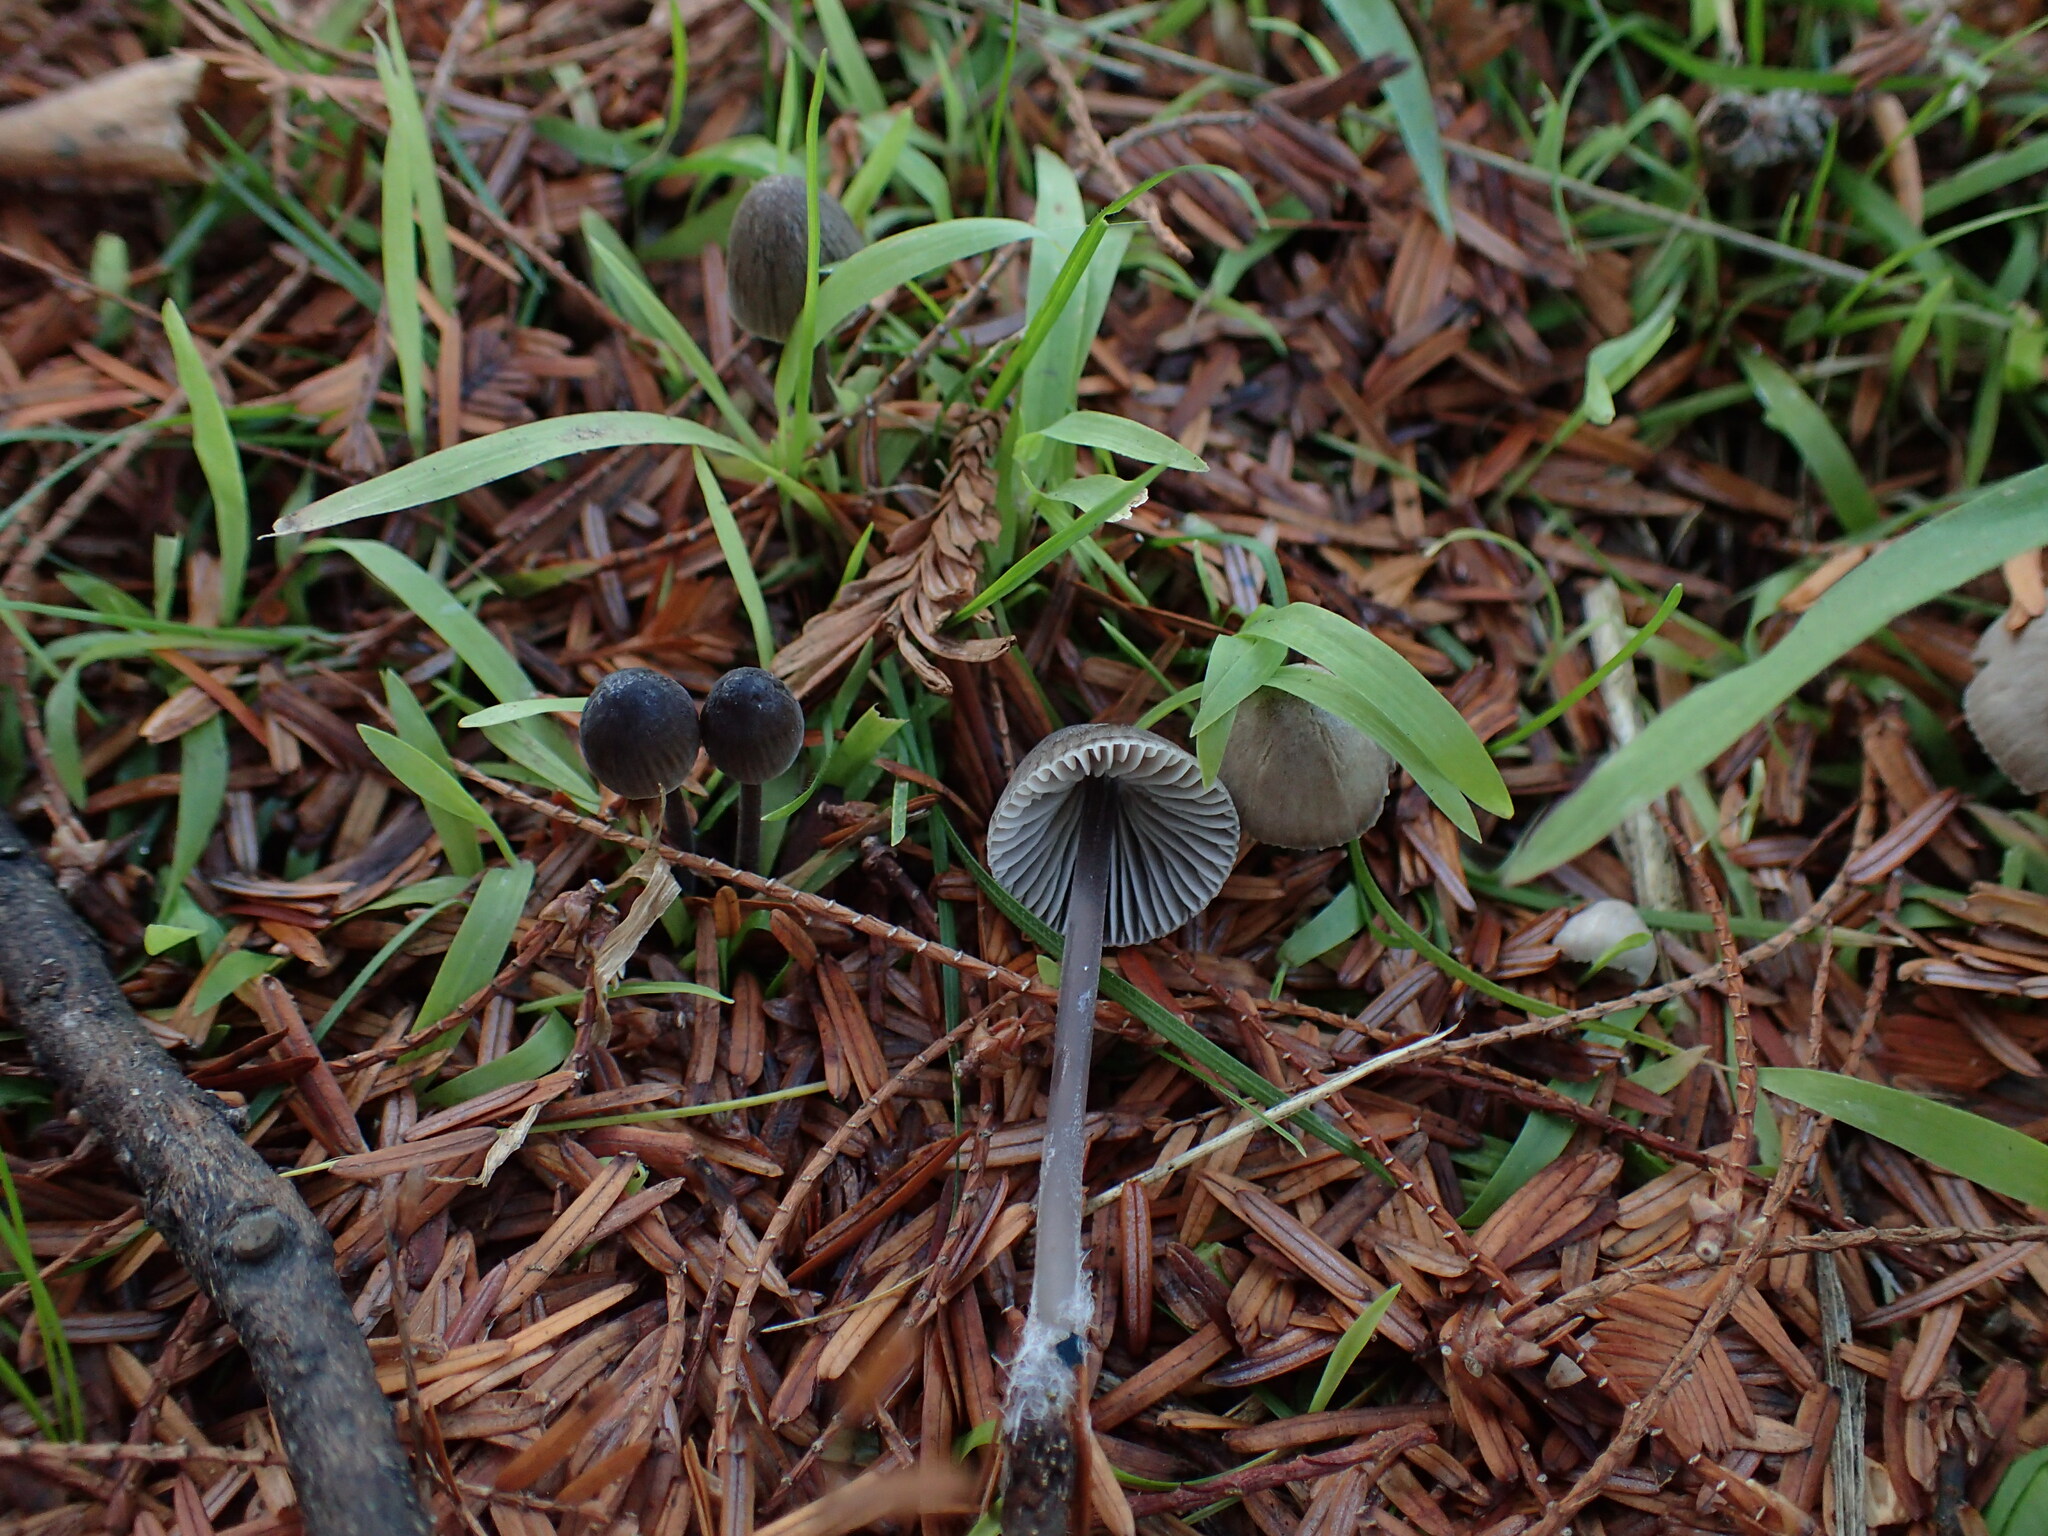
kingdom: Fungi
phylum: Basidiomycota
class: Agaricomycetes
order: Agaricales
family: Mycenaceae
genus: Mycena
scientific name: Mycena leptocephala
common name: Nitrous bonnet
